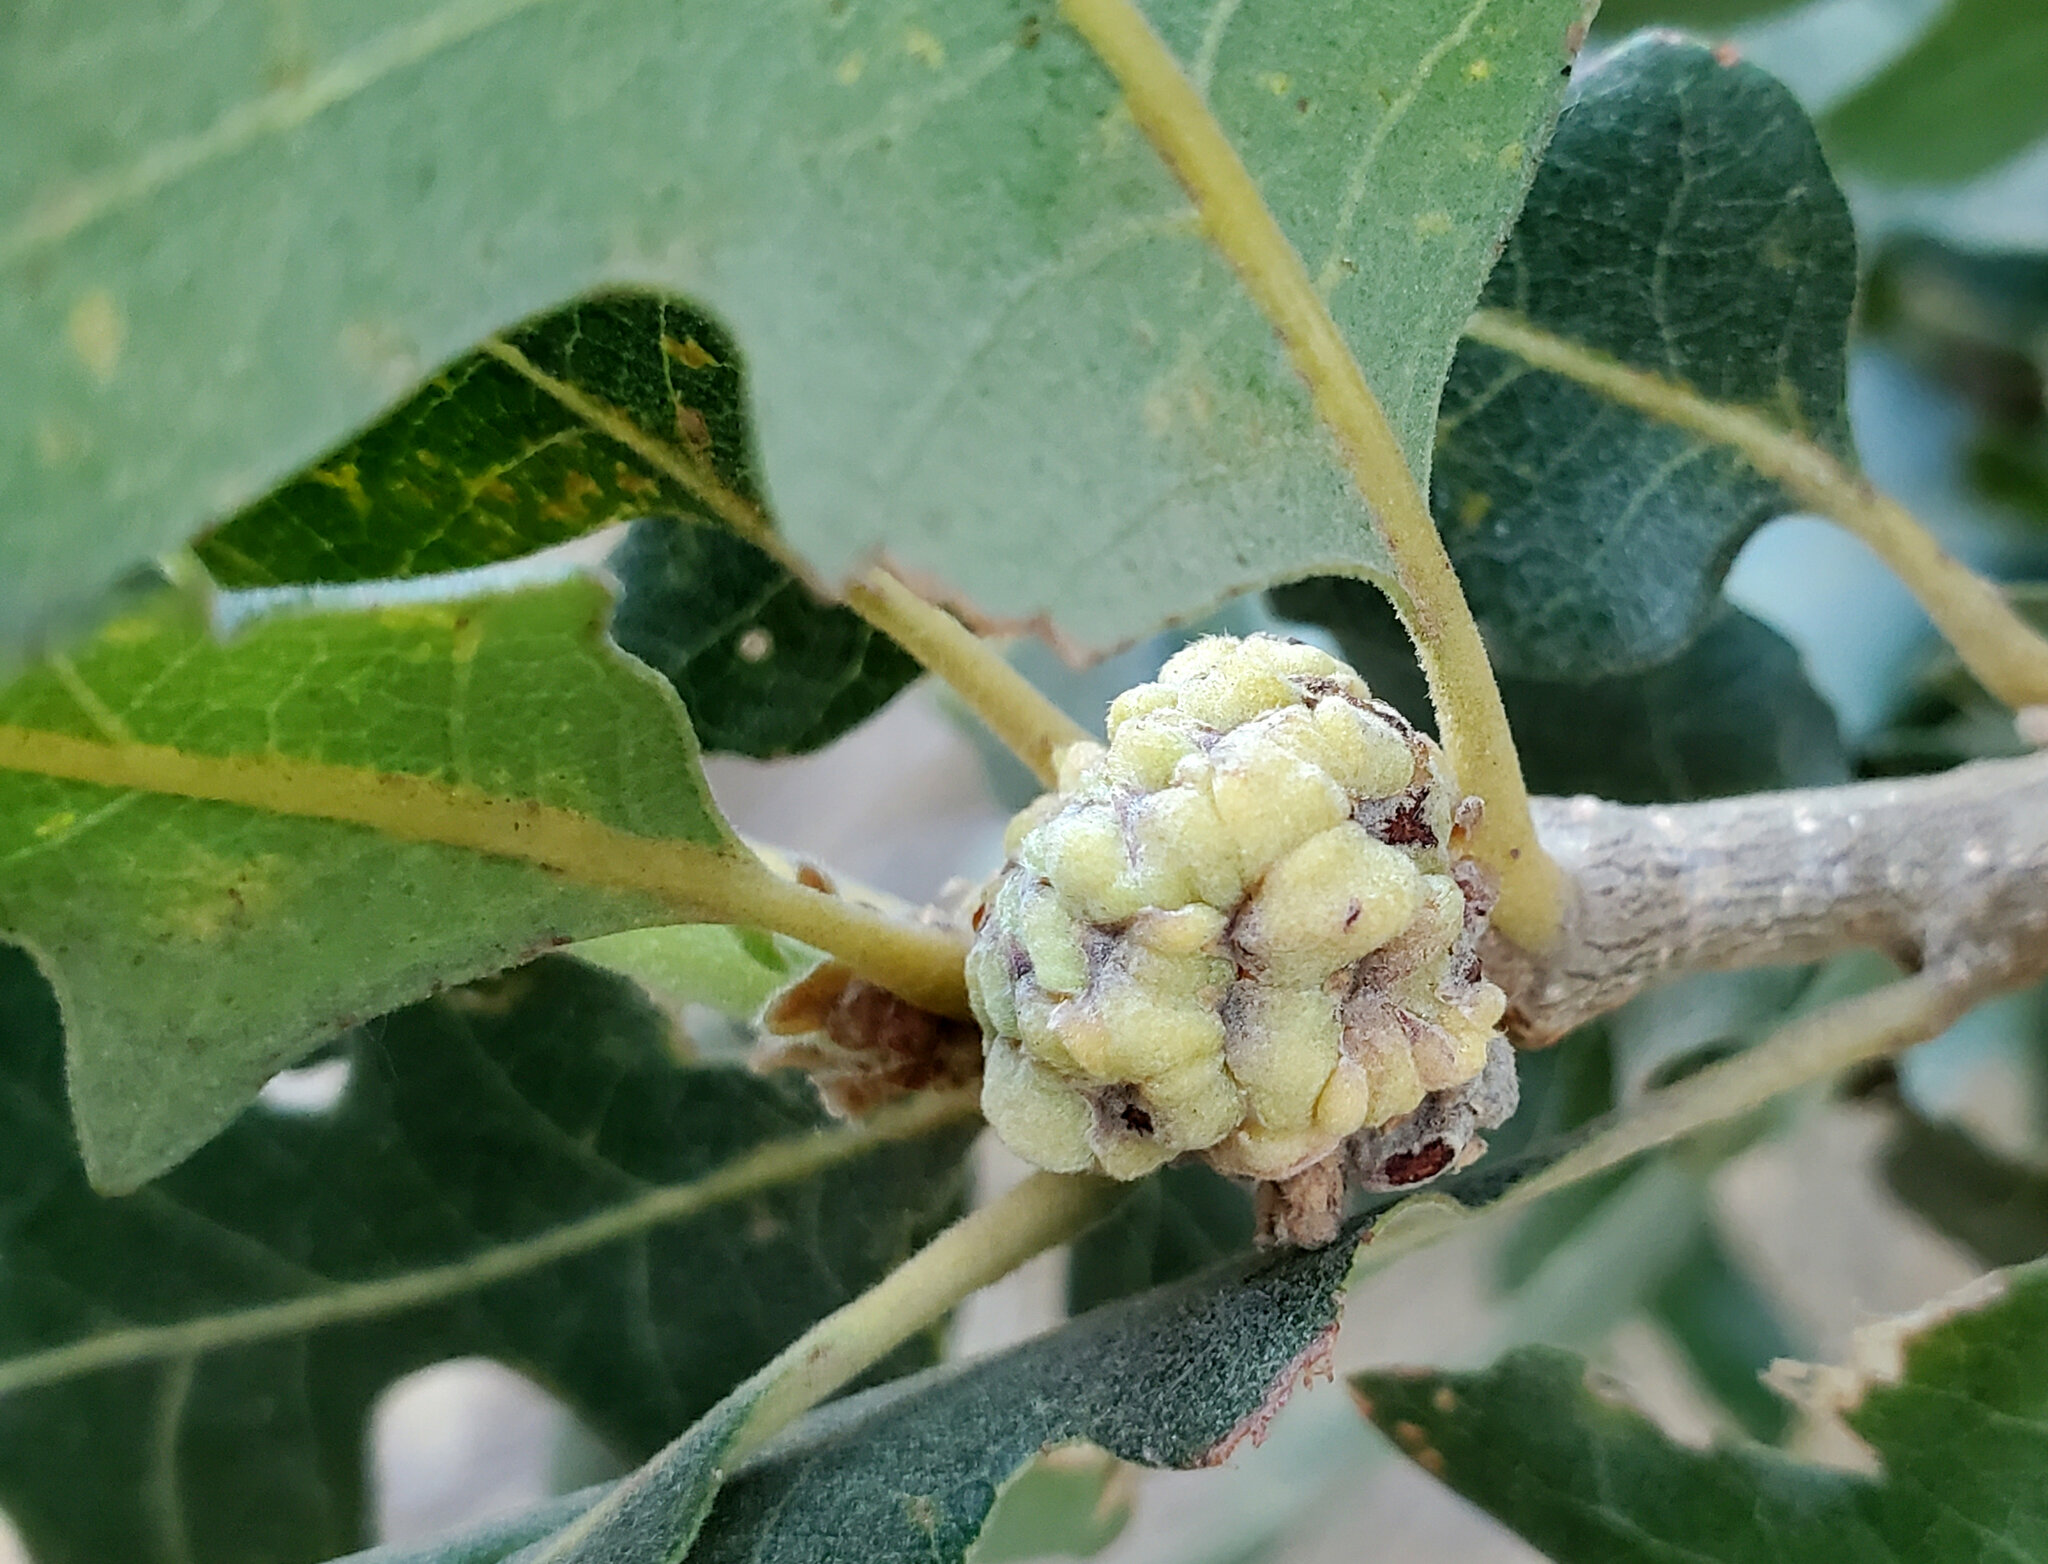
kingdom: Plantae
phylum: Tracheophyta
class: Magnoliopsida
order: Fagales
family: Fagaceae
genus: Quercus
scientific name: Quercus lobata
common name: Valley oak
